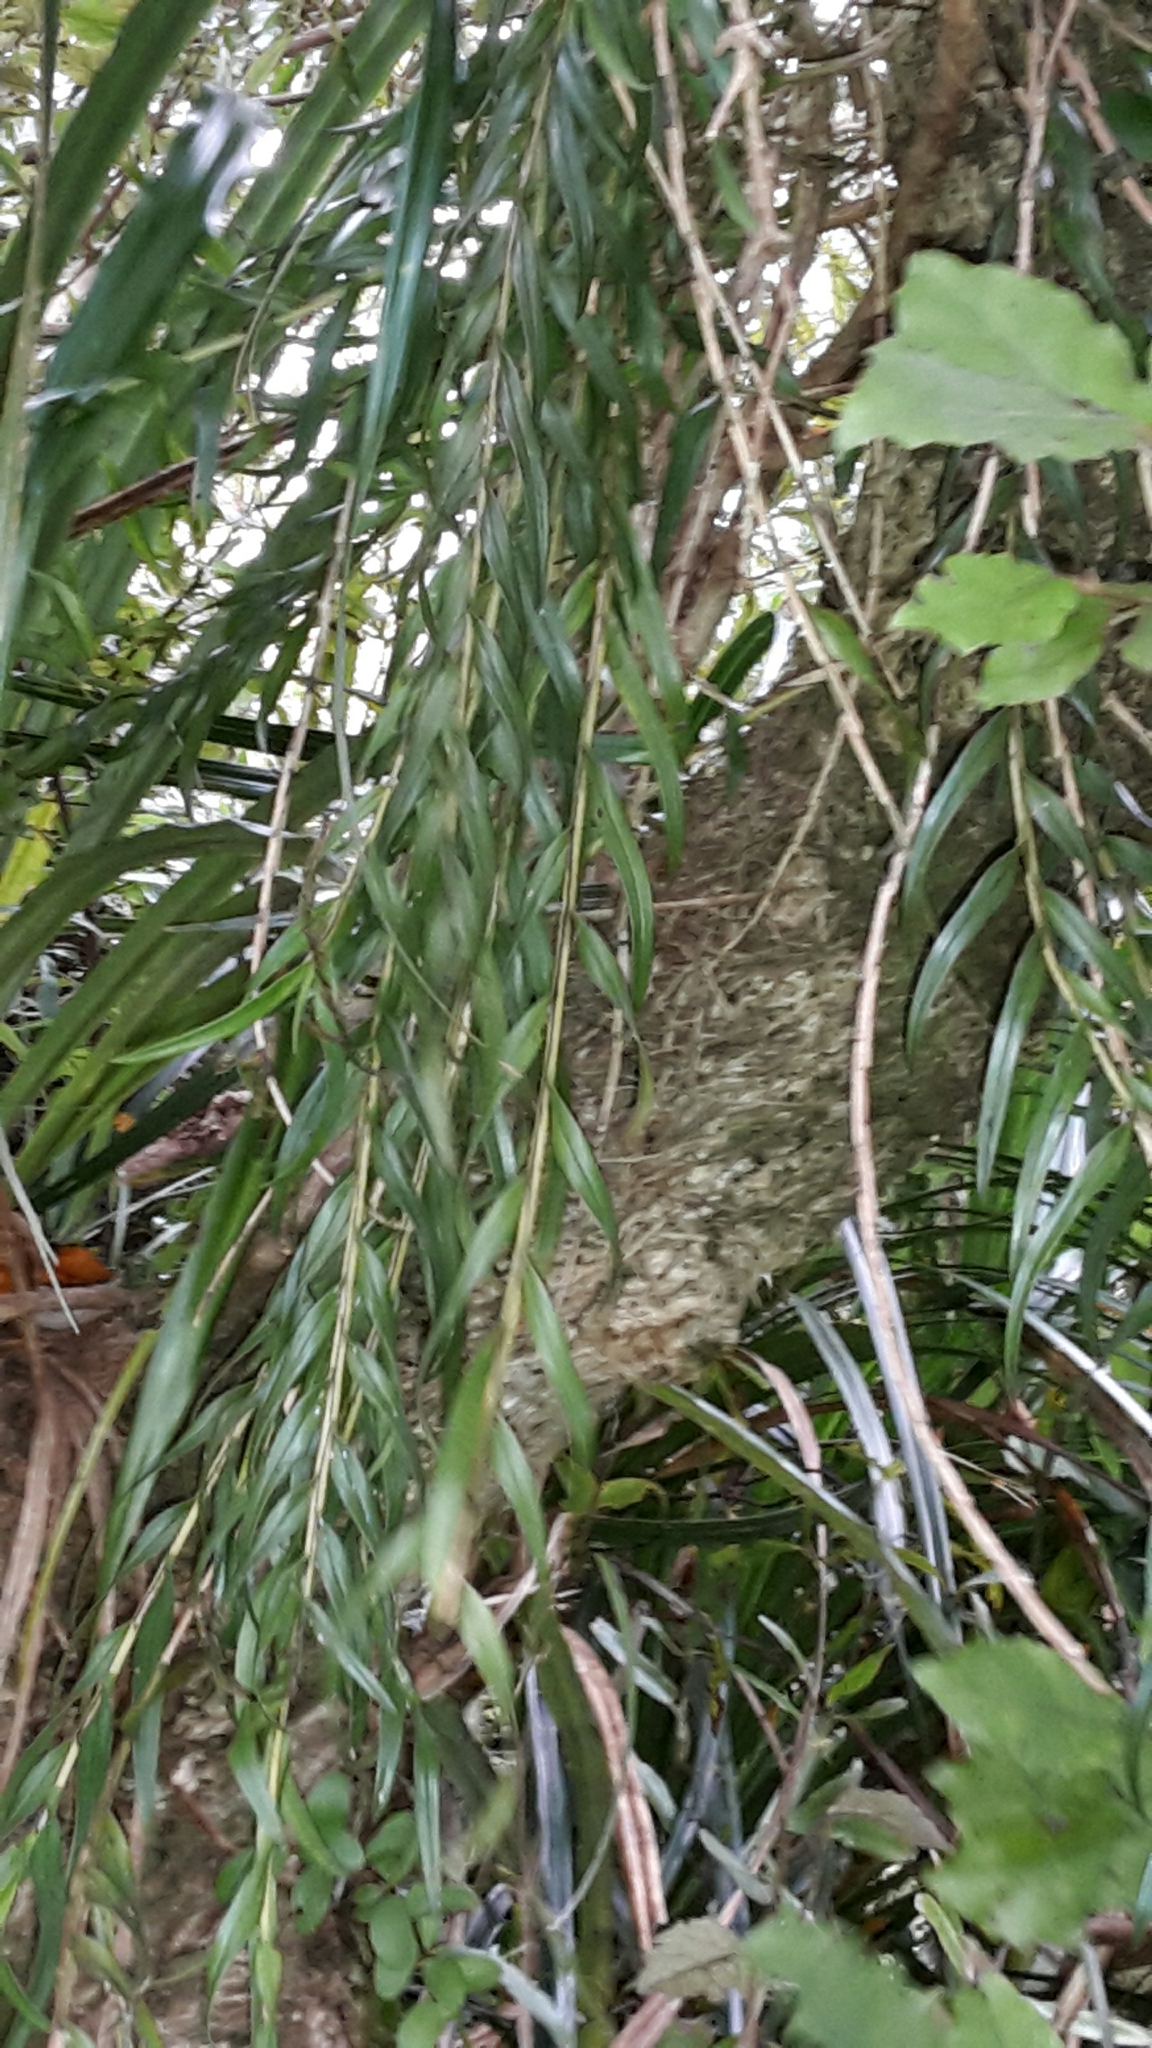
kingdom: Plantae
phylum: Tracheophyta
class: Liliopsida
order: Asparagales
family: Orchidaceae
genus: Earina
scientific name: Earina autumnalis
